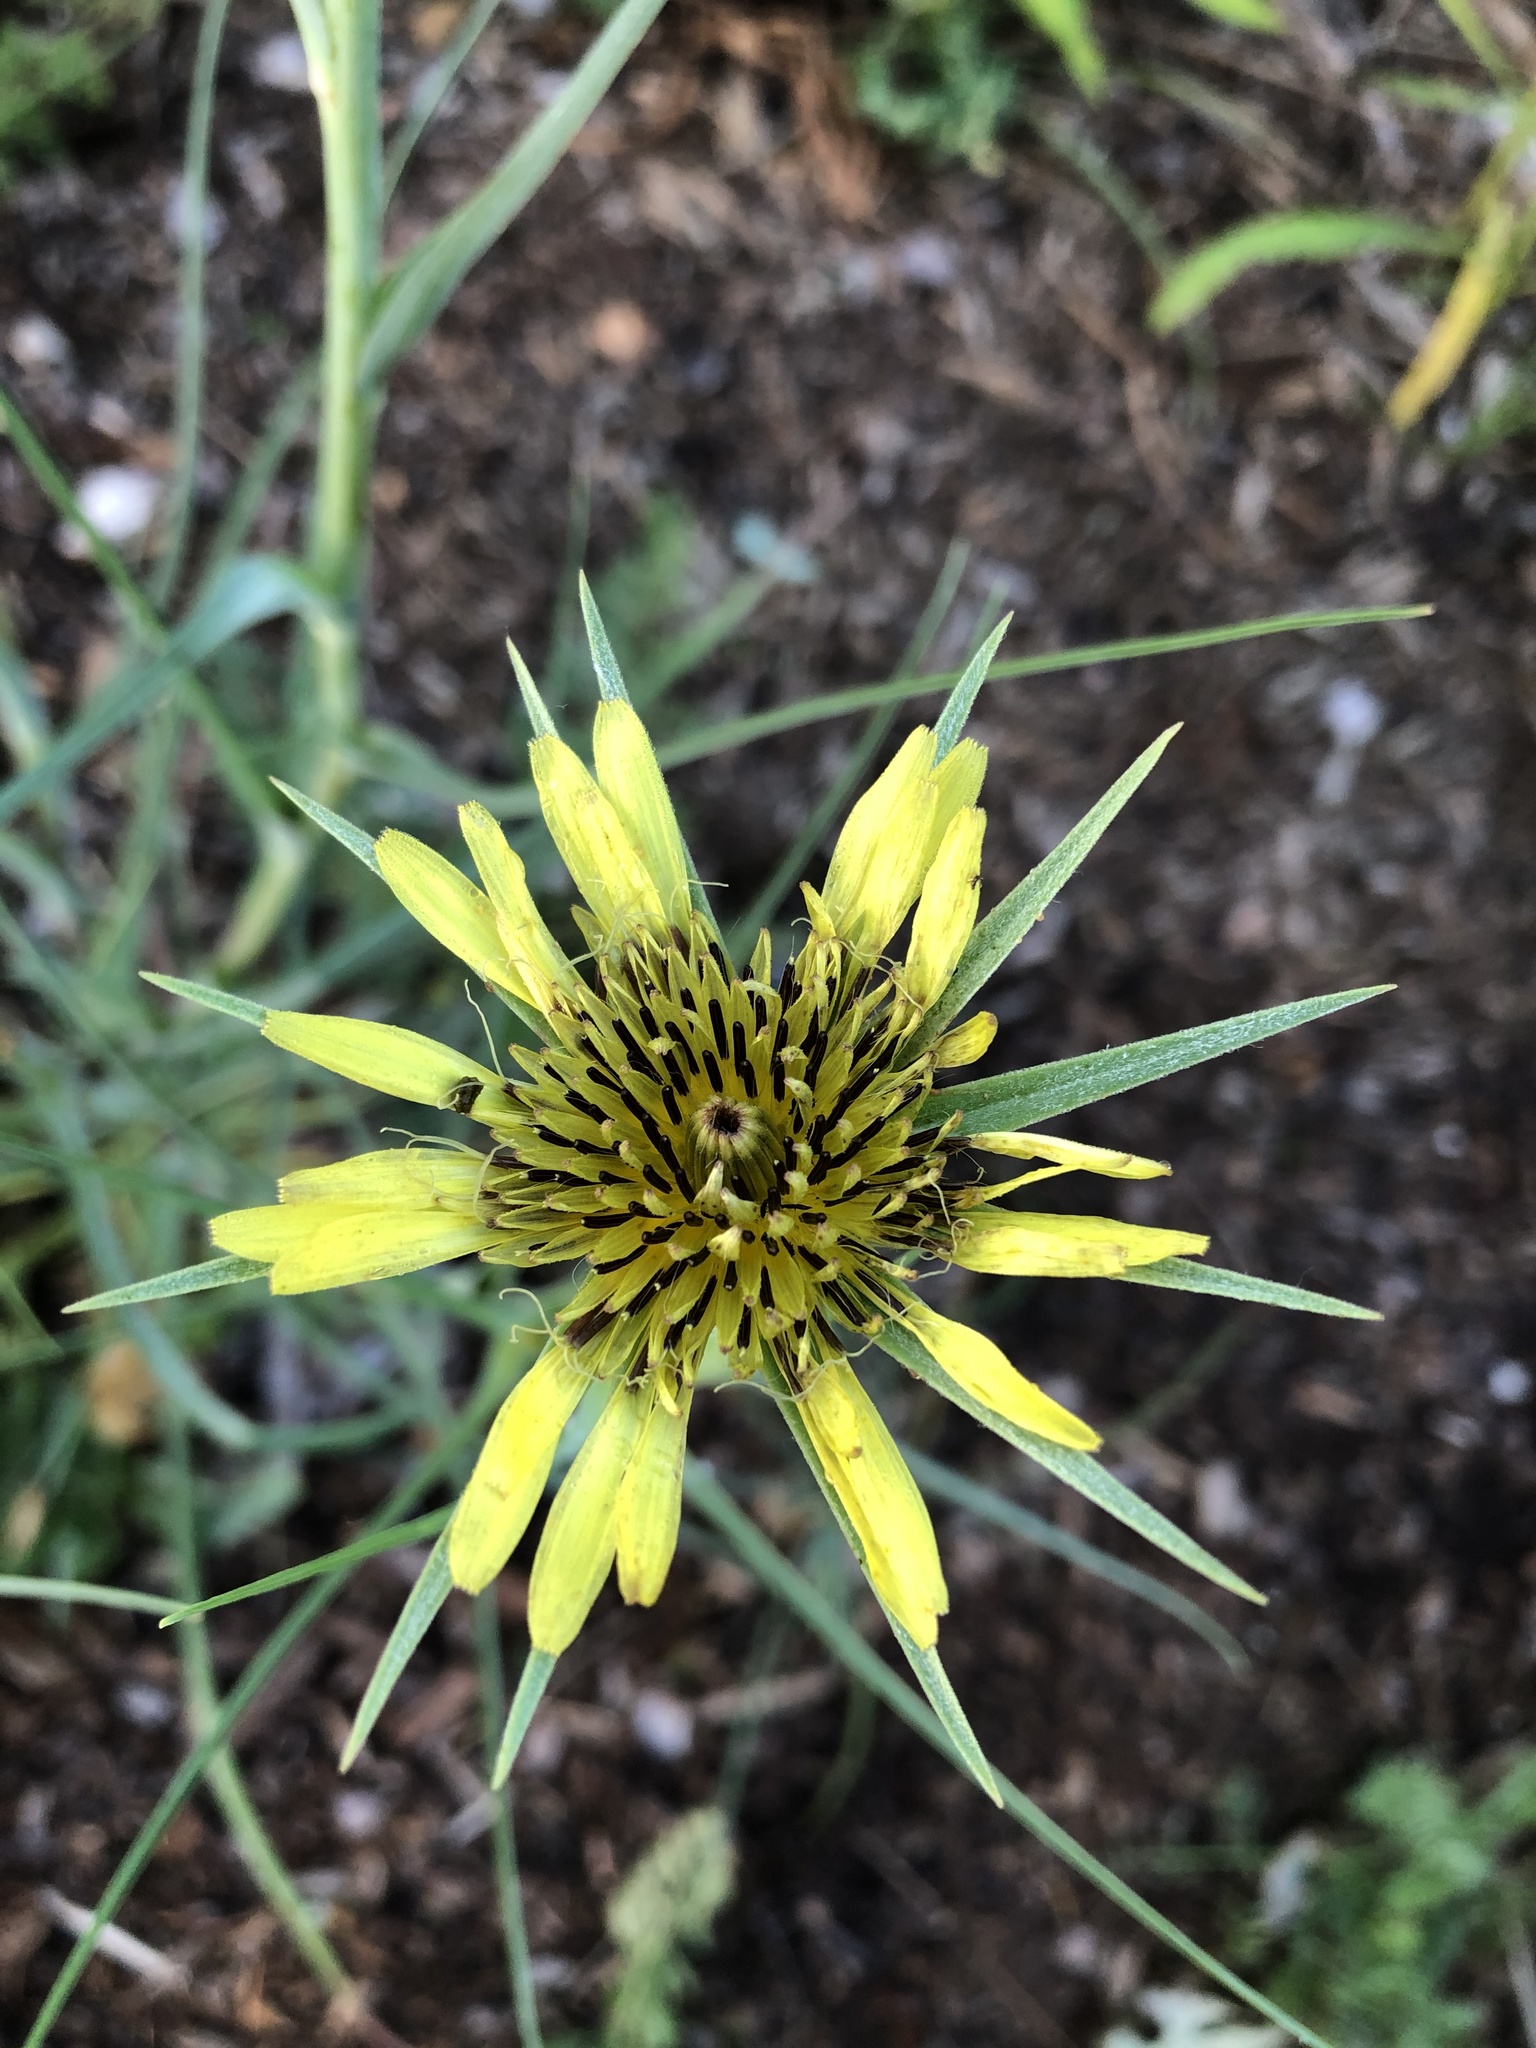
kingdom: Plantae
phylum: Tracheophyta
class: Magnoliopsida
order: Asterales
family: Asteraceae
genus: Tragopogon
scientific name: Tragopogon dubius
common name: Yellow salsify
